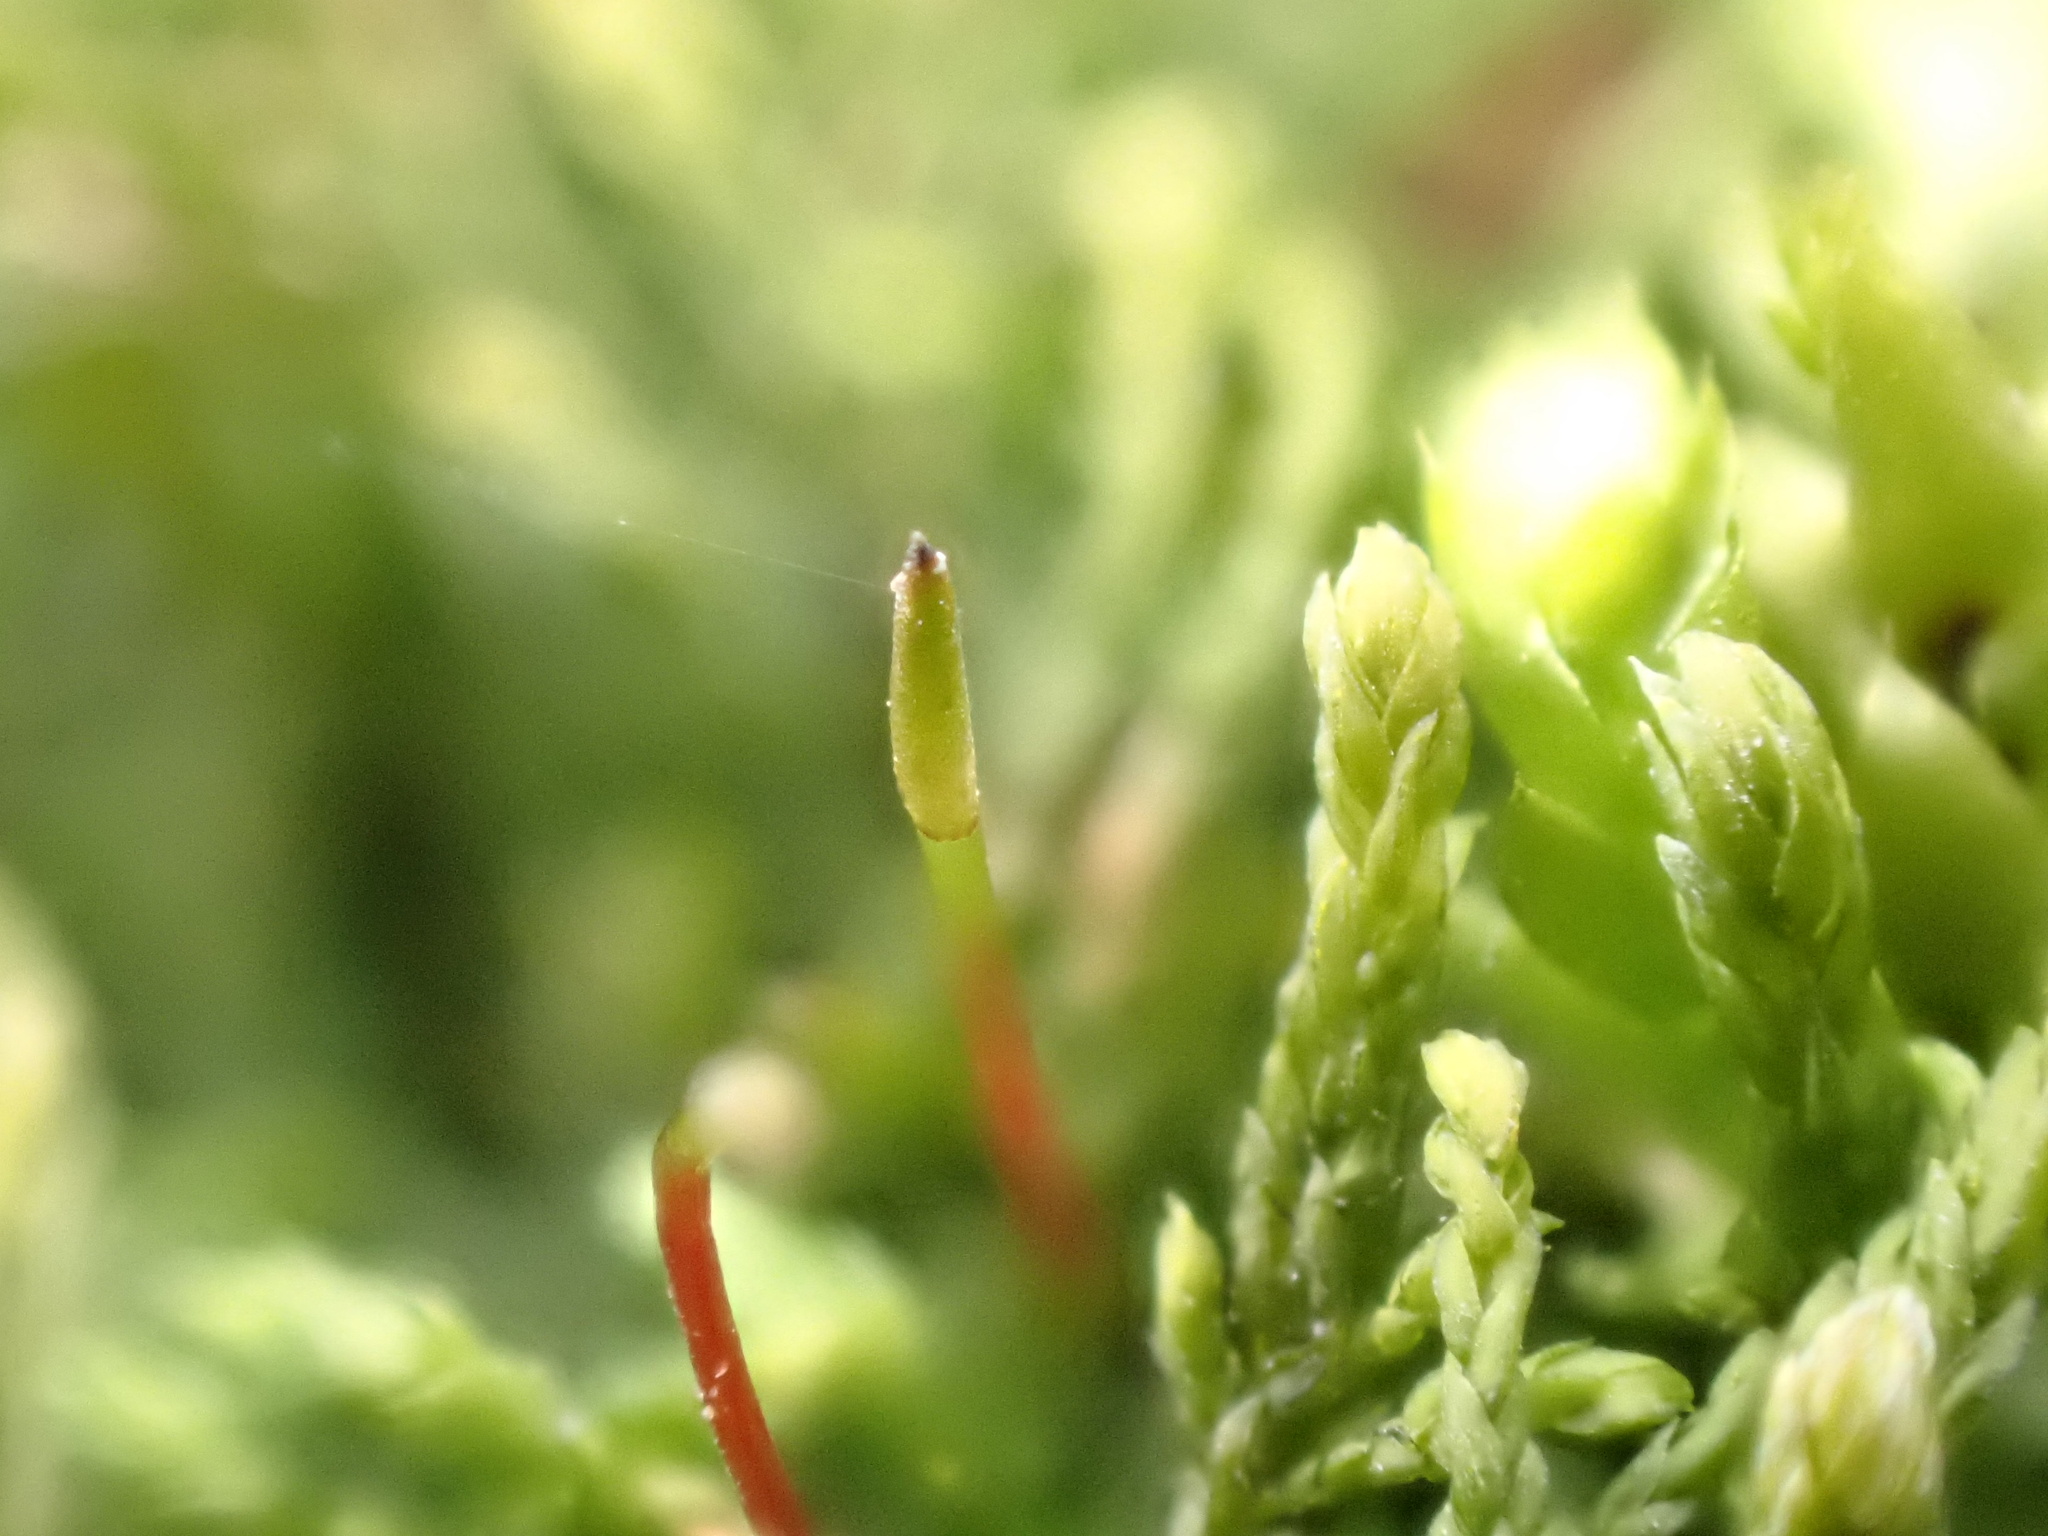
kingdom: Plantae
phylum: Bryophyta
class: Bryopsida
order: Hypnales
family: Leskeaceae
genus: Leskea
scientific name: Leskea polycarpa
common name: Many-fruited leske's moss
